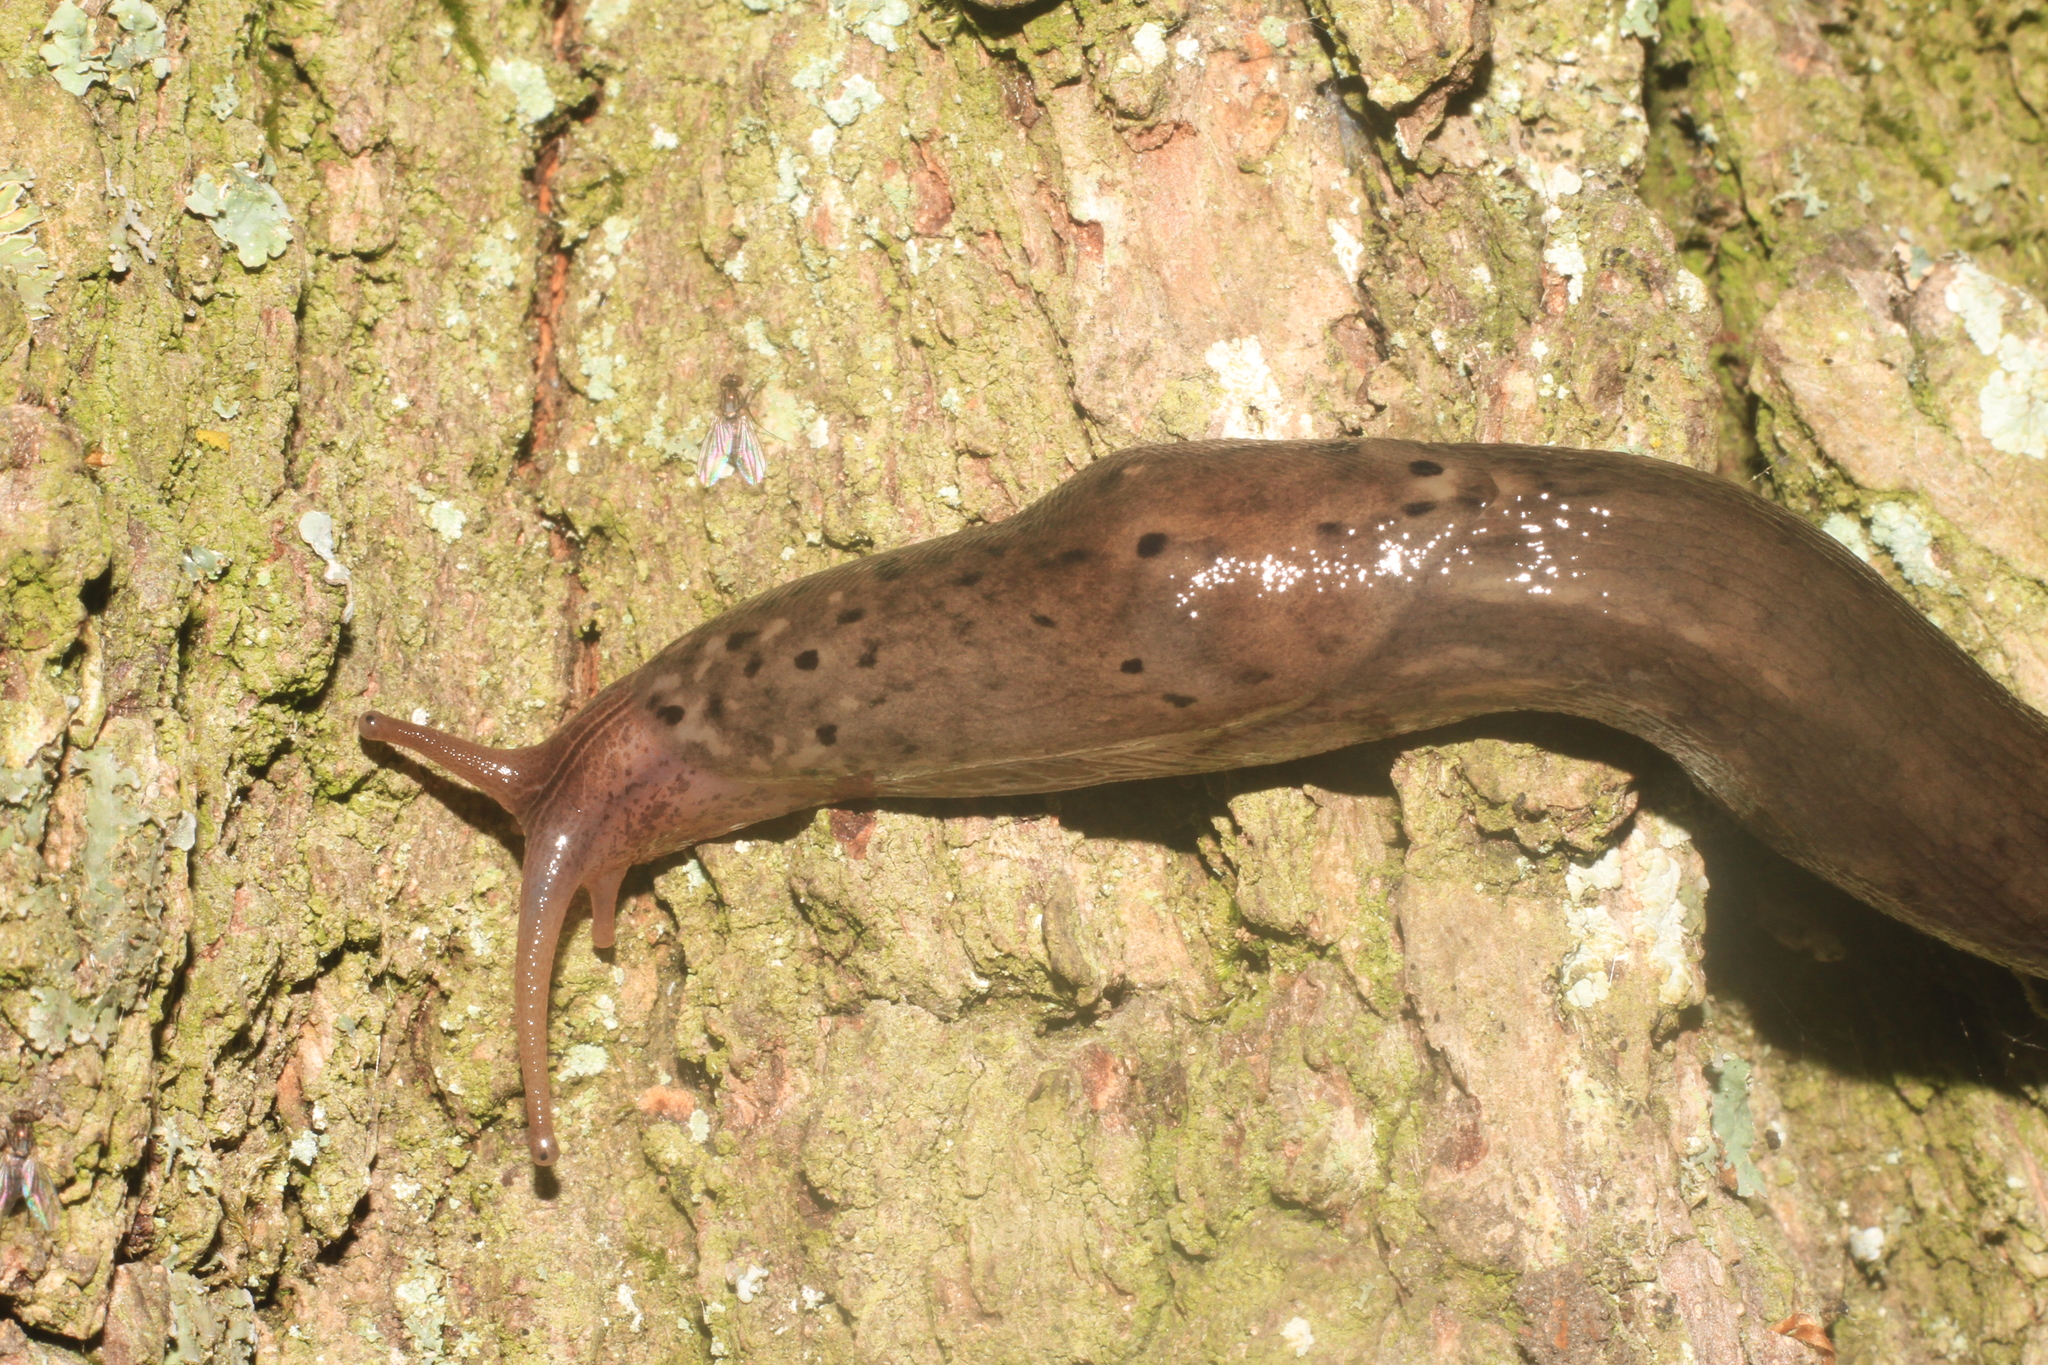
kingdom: Animalia
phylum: Mollusca
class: Gastropoda
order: Stylommatophora
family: Limacidae
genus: Limax
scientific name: Limax maximus
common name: Great grey slug
